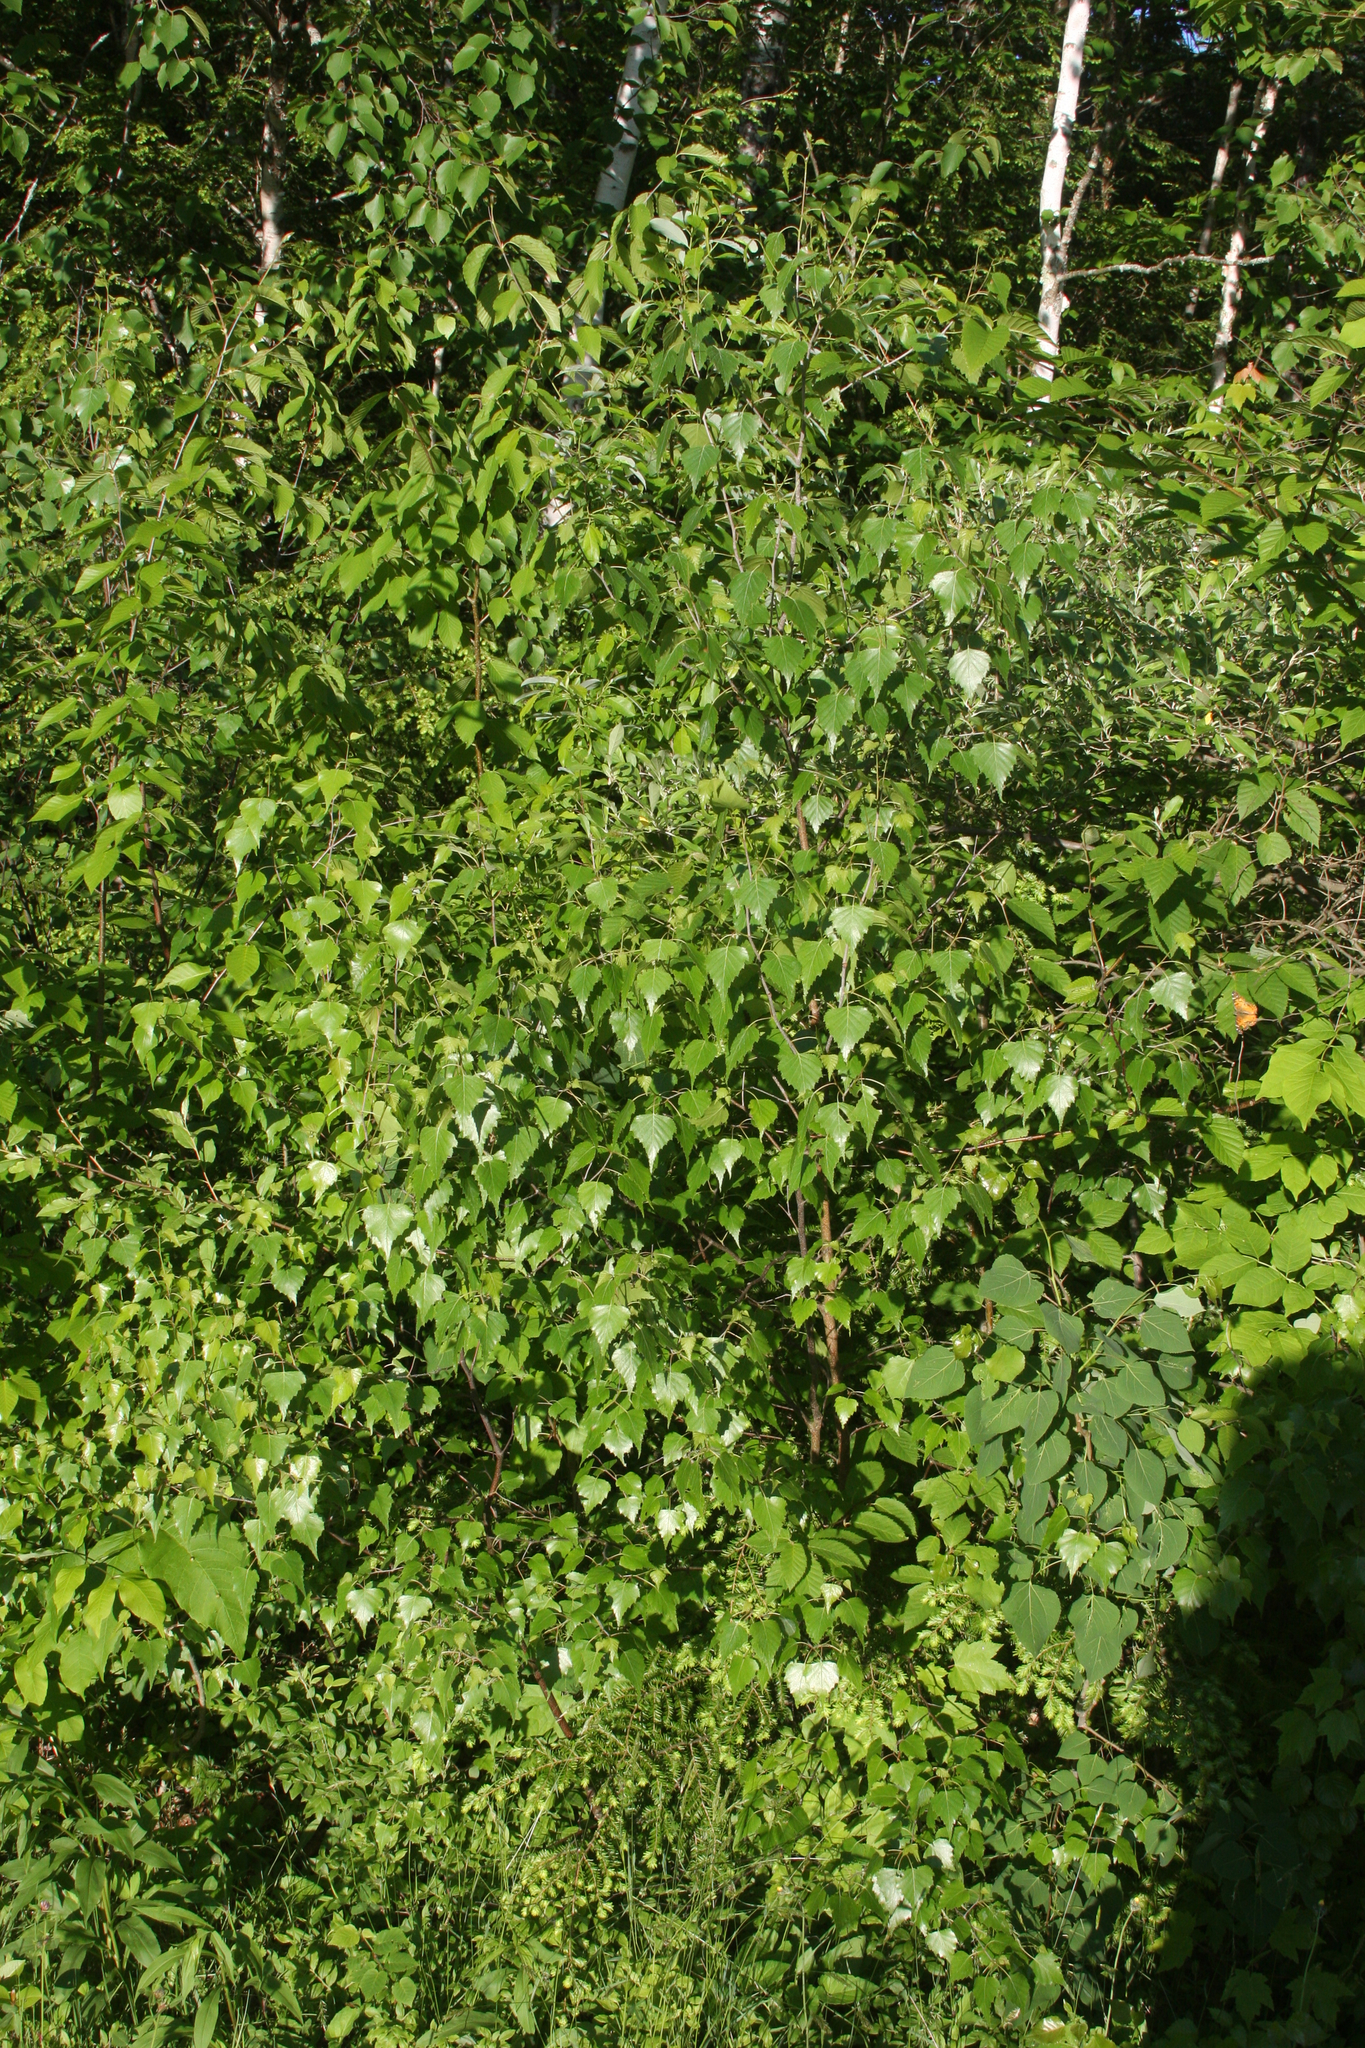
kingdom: Plantae
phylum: Tracheophyta
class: Magnoliopsida
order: Fagales
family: Betulaceae
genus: Betula
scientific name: Betula populifolia
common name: Fire birch
